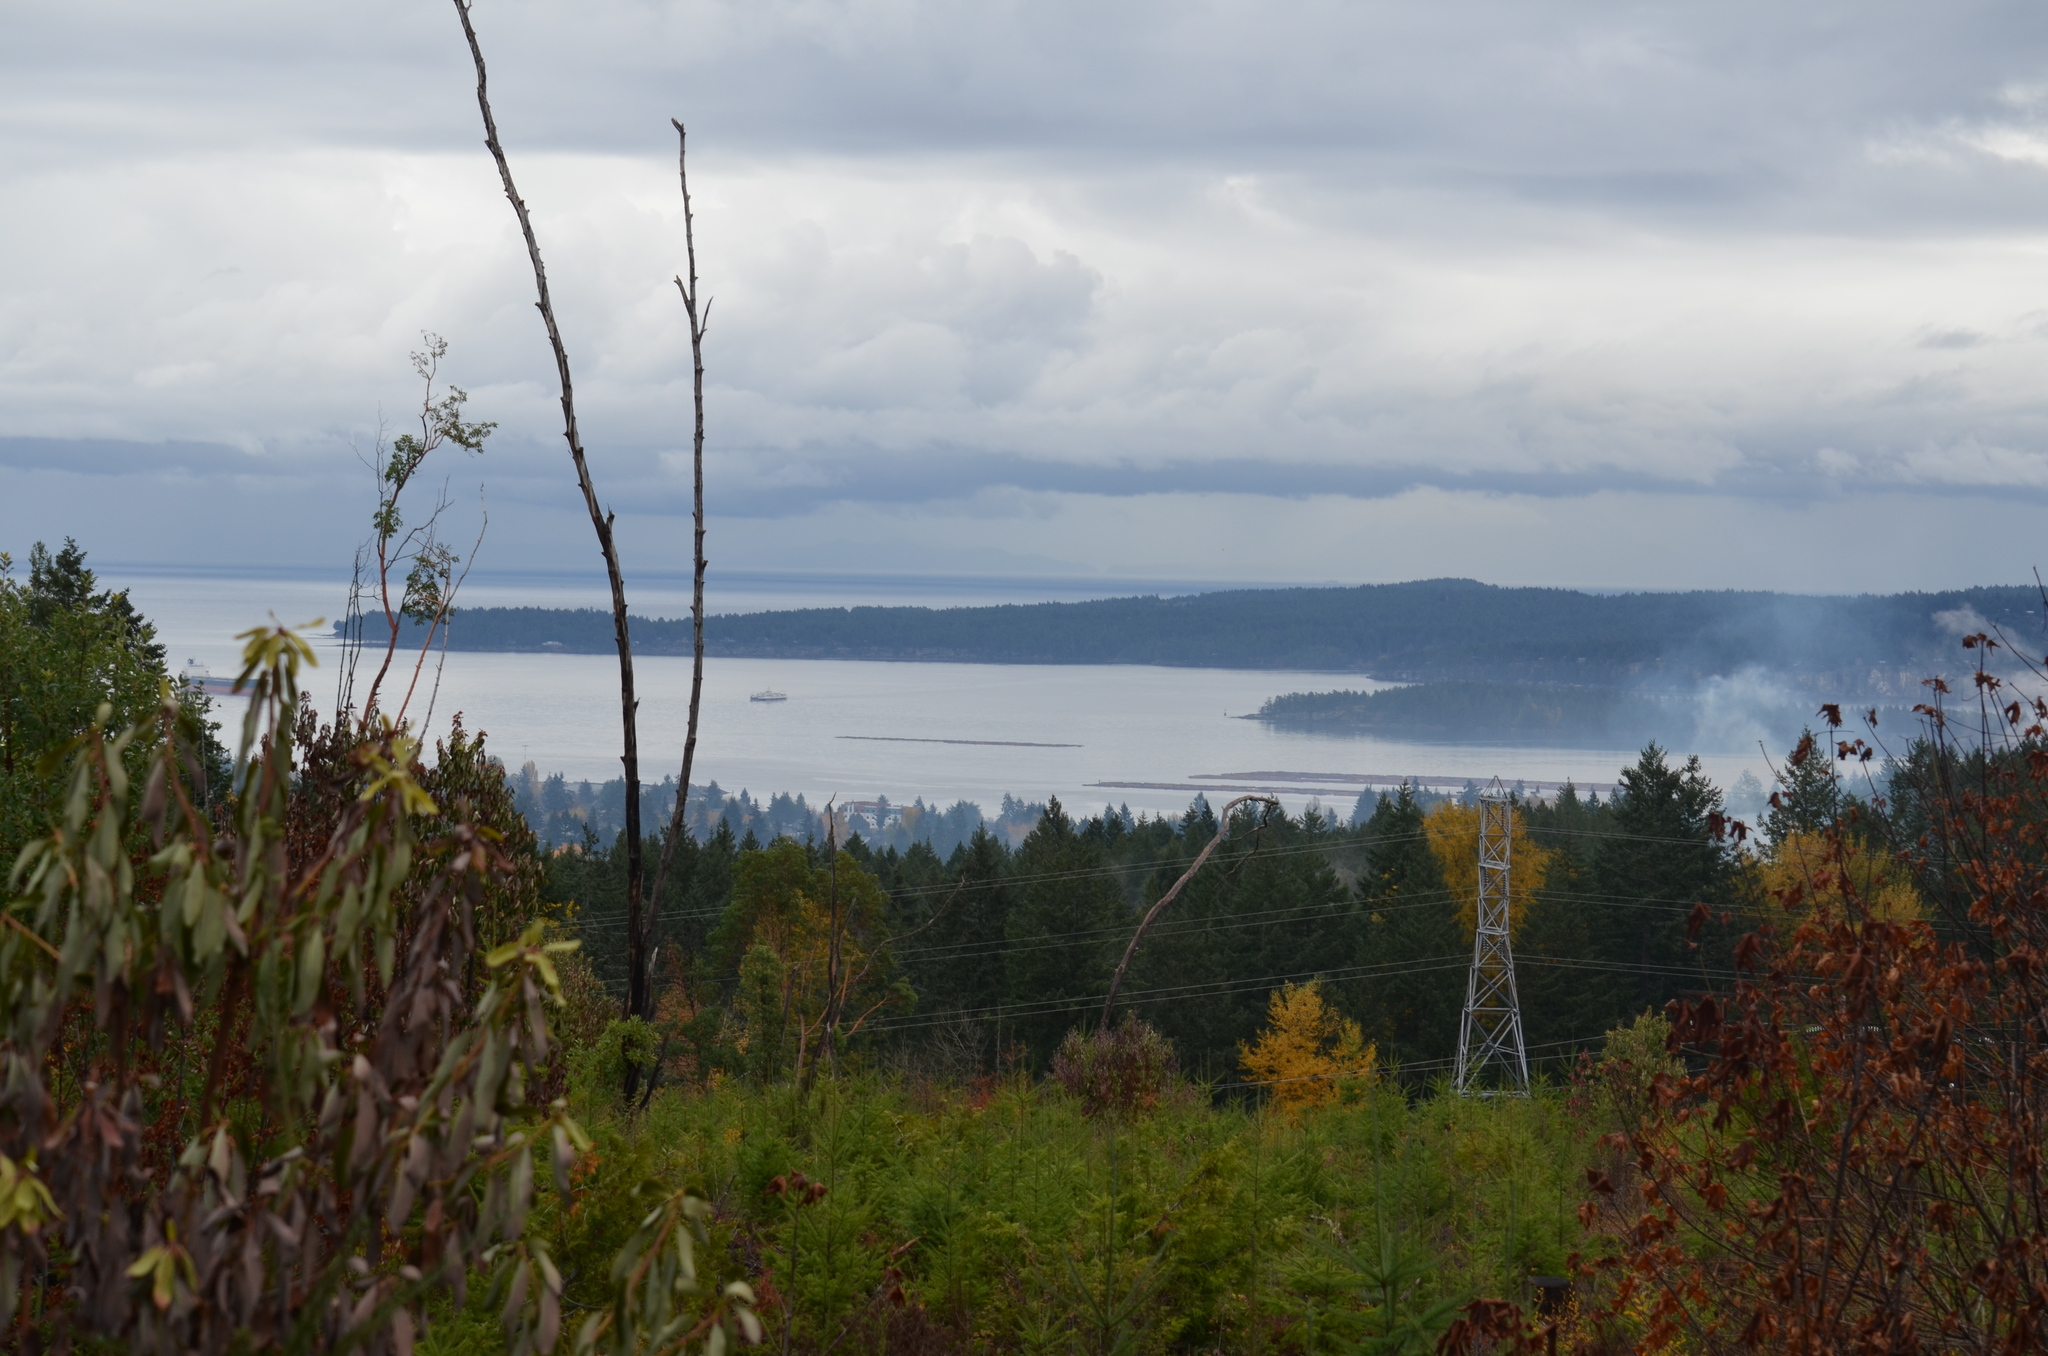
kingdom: Plantae
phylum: Tracheophyta
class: Magnoliopsida
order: Ericales
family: Ericaceae
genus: Arbutus
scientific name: Arbutus menziesii
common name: Pacific madrone
